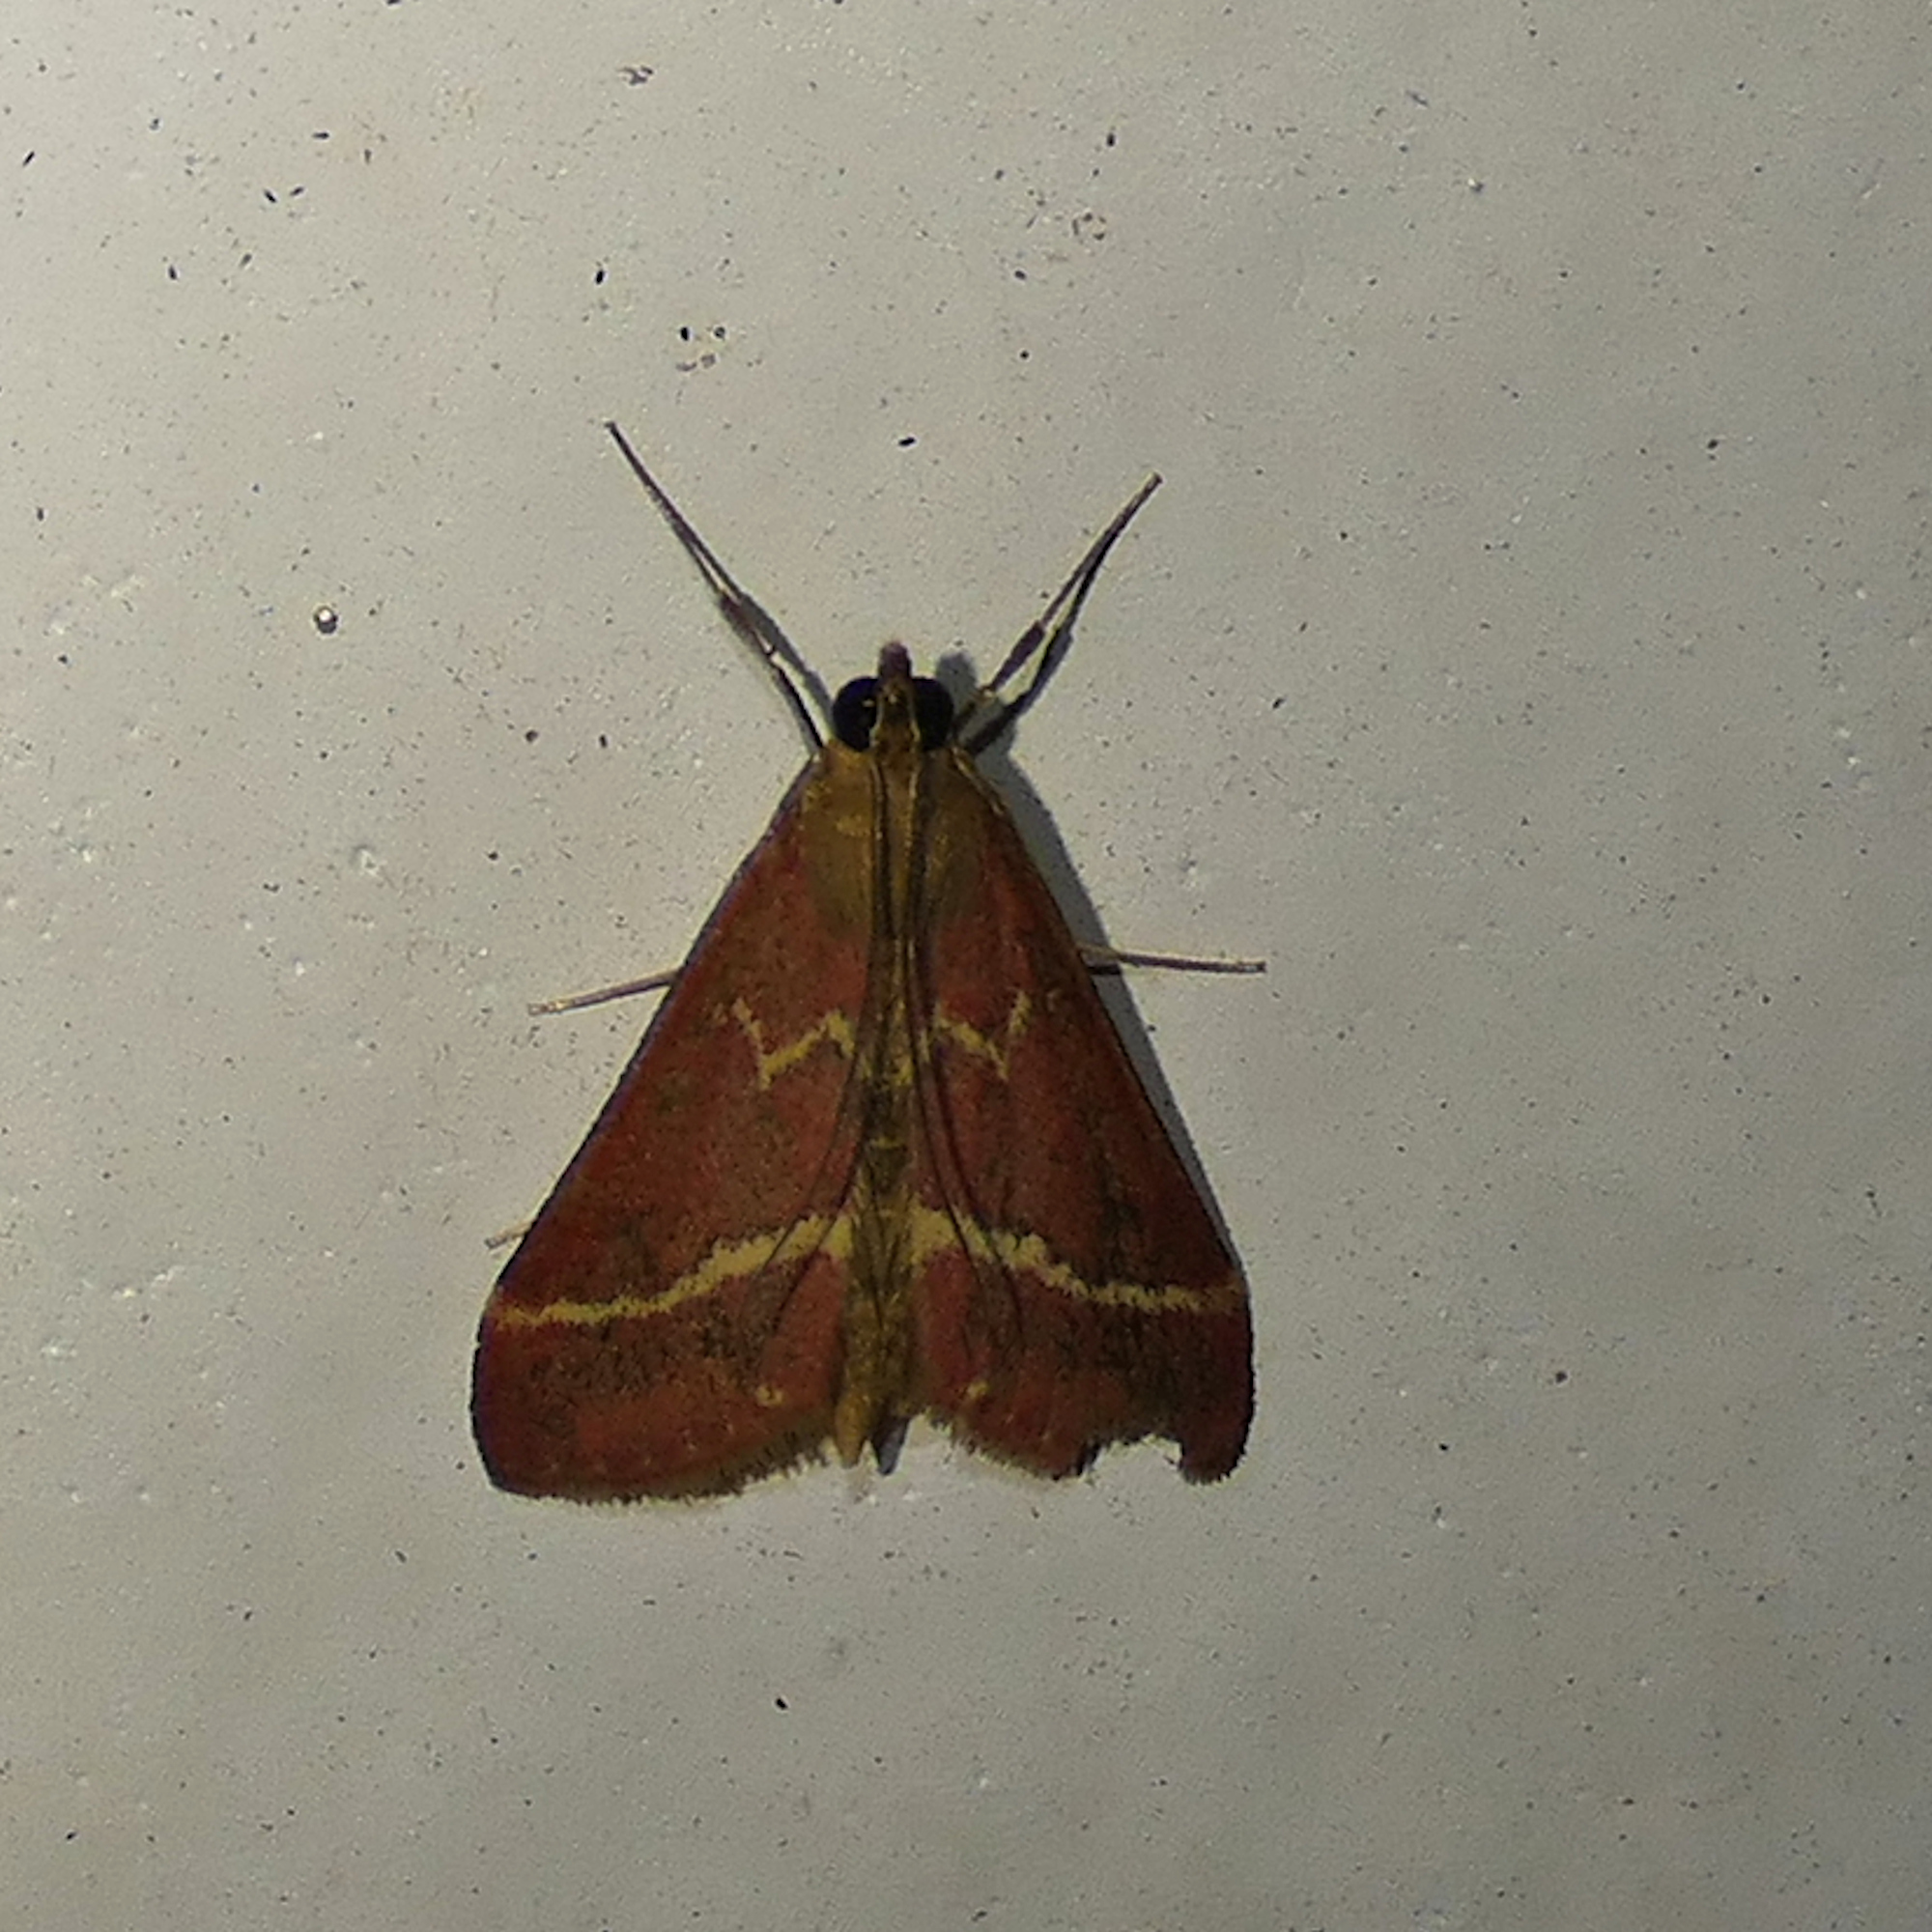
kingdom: Animalia
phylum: Arthropoda
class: Insecta
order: Lepidoptera
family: Crambidae
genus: Pyrausta
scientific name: Pyrausta volupialis
